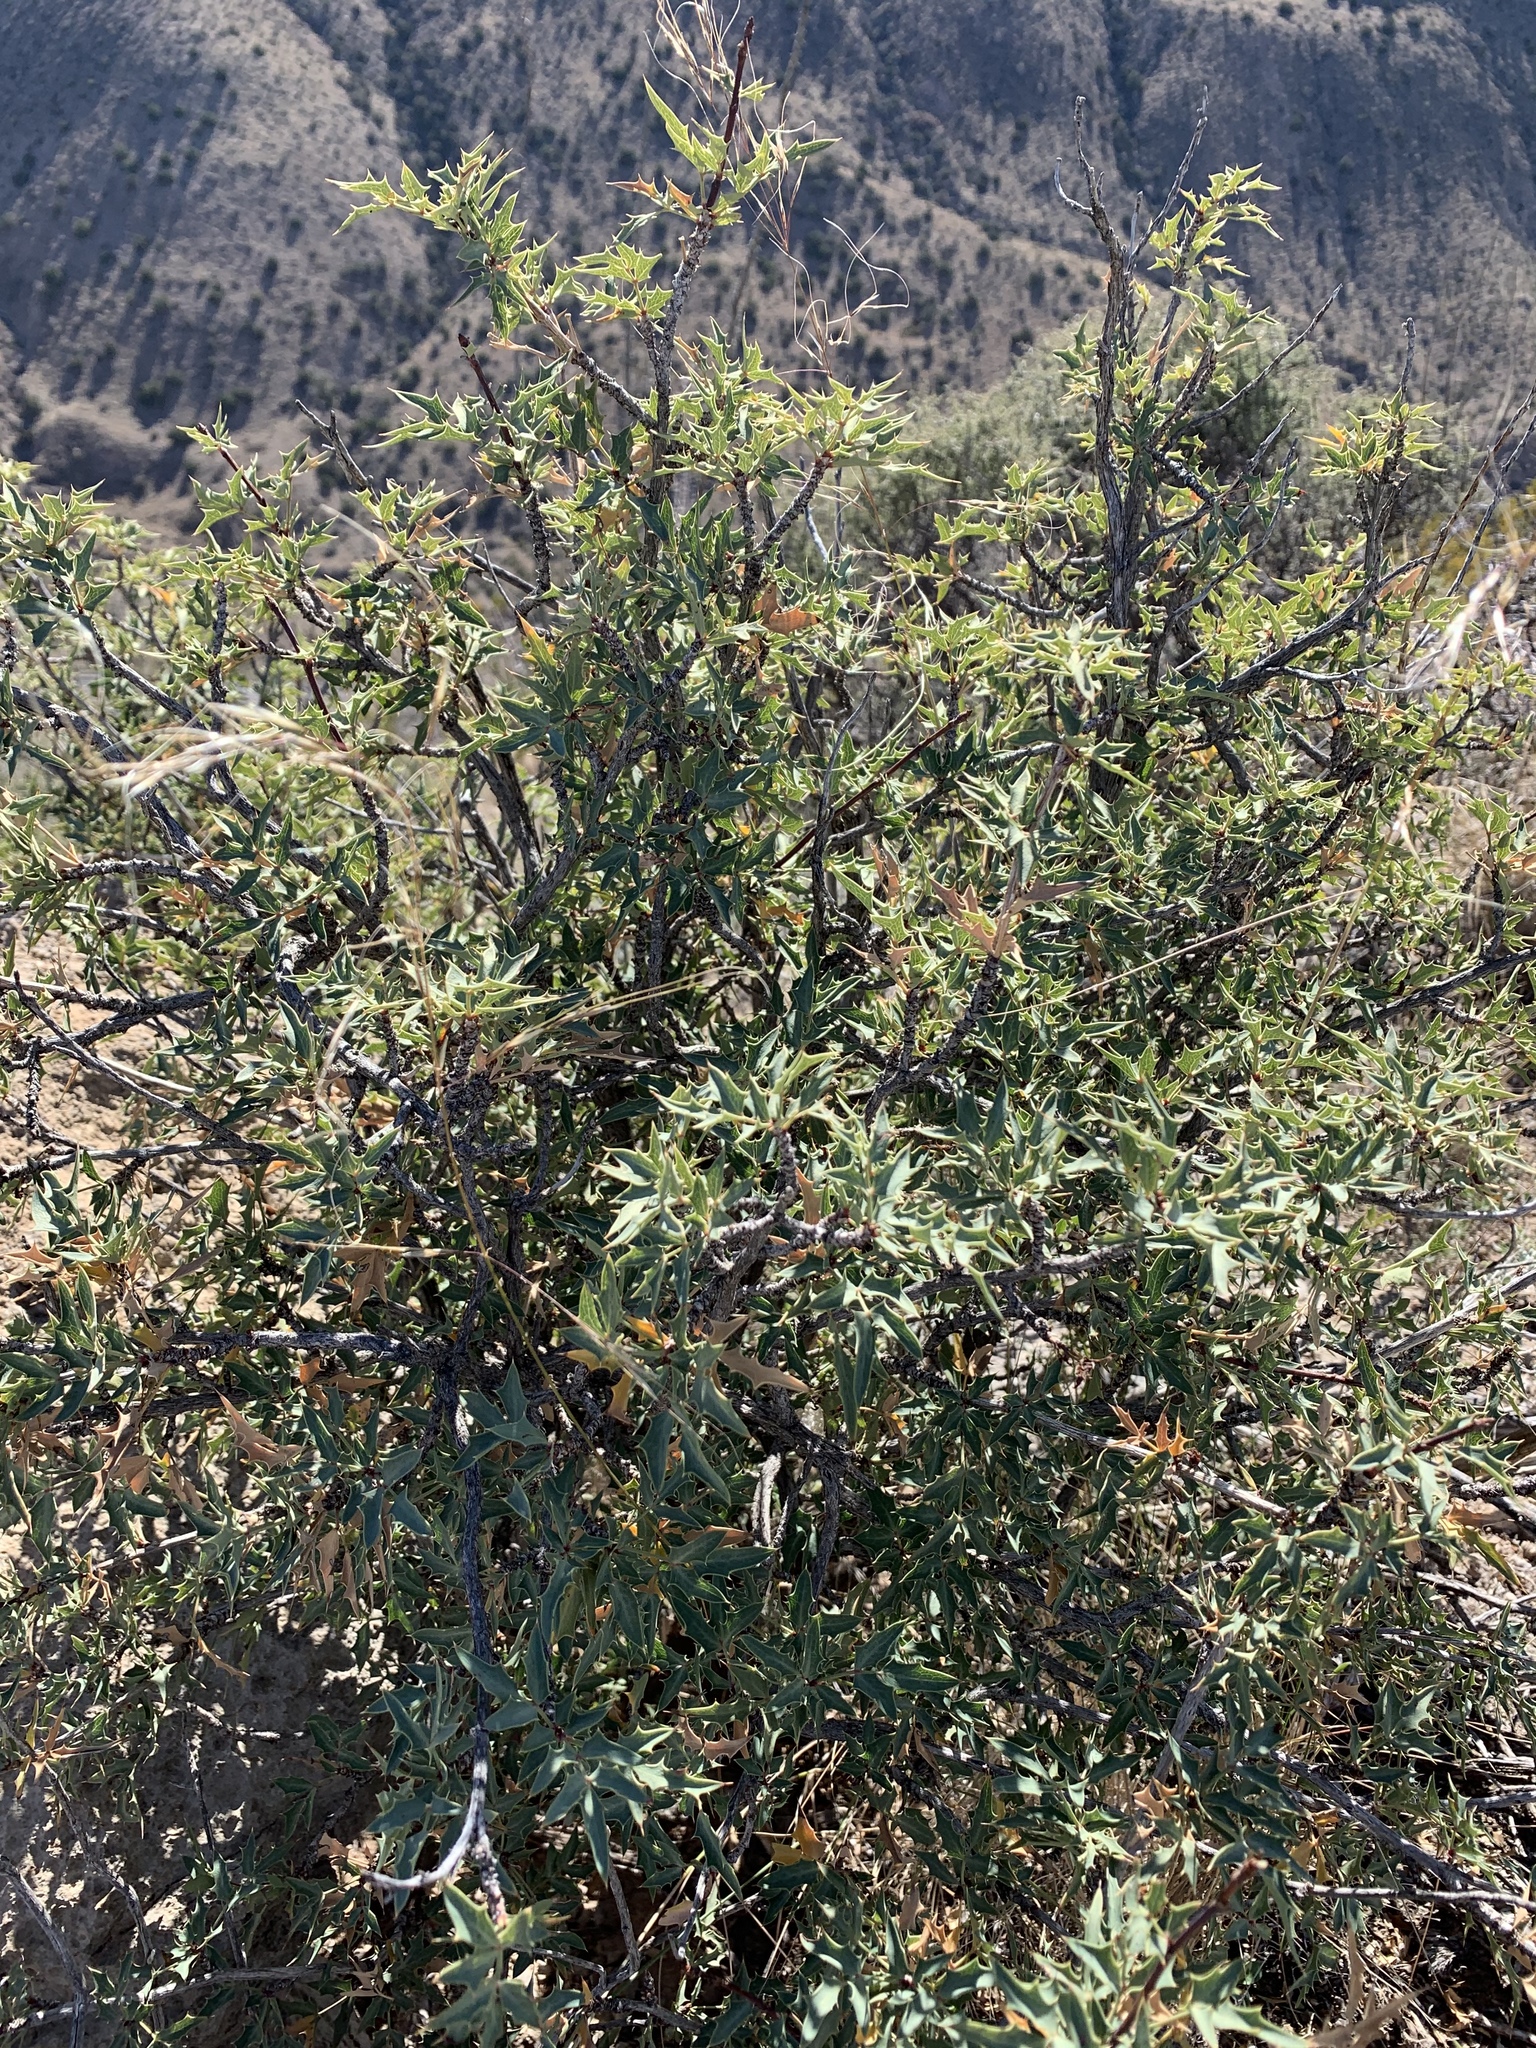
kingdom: Plantae
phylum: Tracheophyta
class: Magnoliopsida
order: Ranunculales
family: Berberidaceae
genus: Alloberberis
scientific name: Alloberberis haematocarpa
